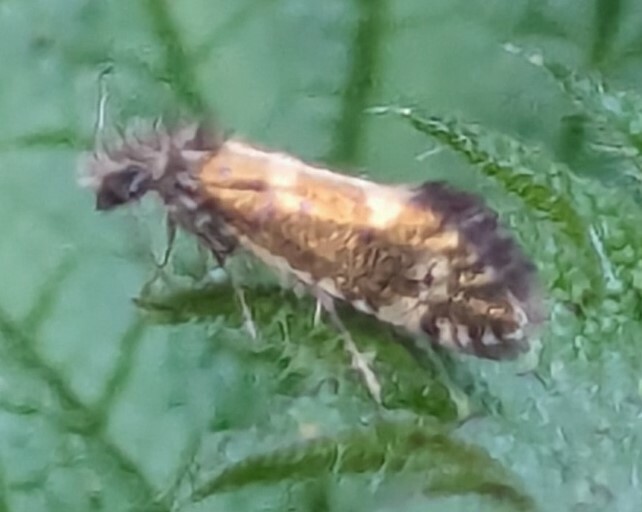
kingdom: Animalia
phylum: Arthropoda
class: Insecta
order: Lepidoptera
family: Eriocraniidae
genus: Dyseriocrania
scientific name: Dyseriocrania subpurpurella
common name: Common oak purple
